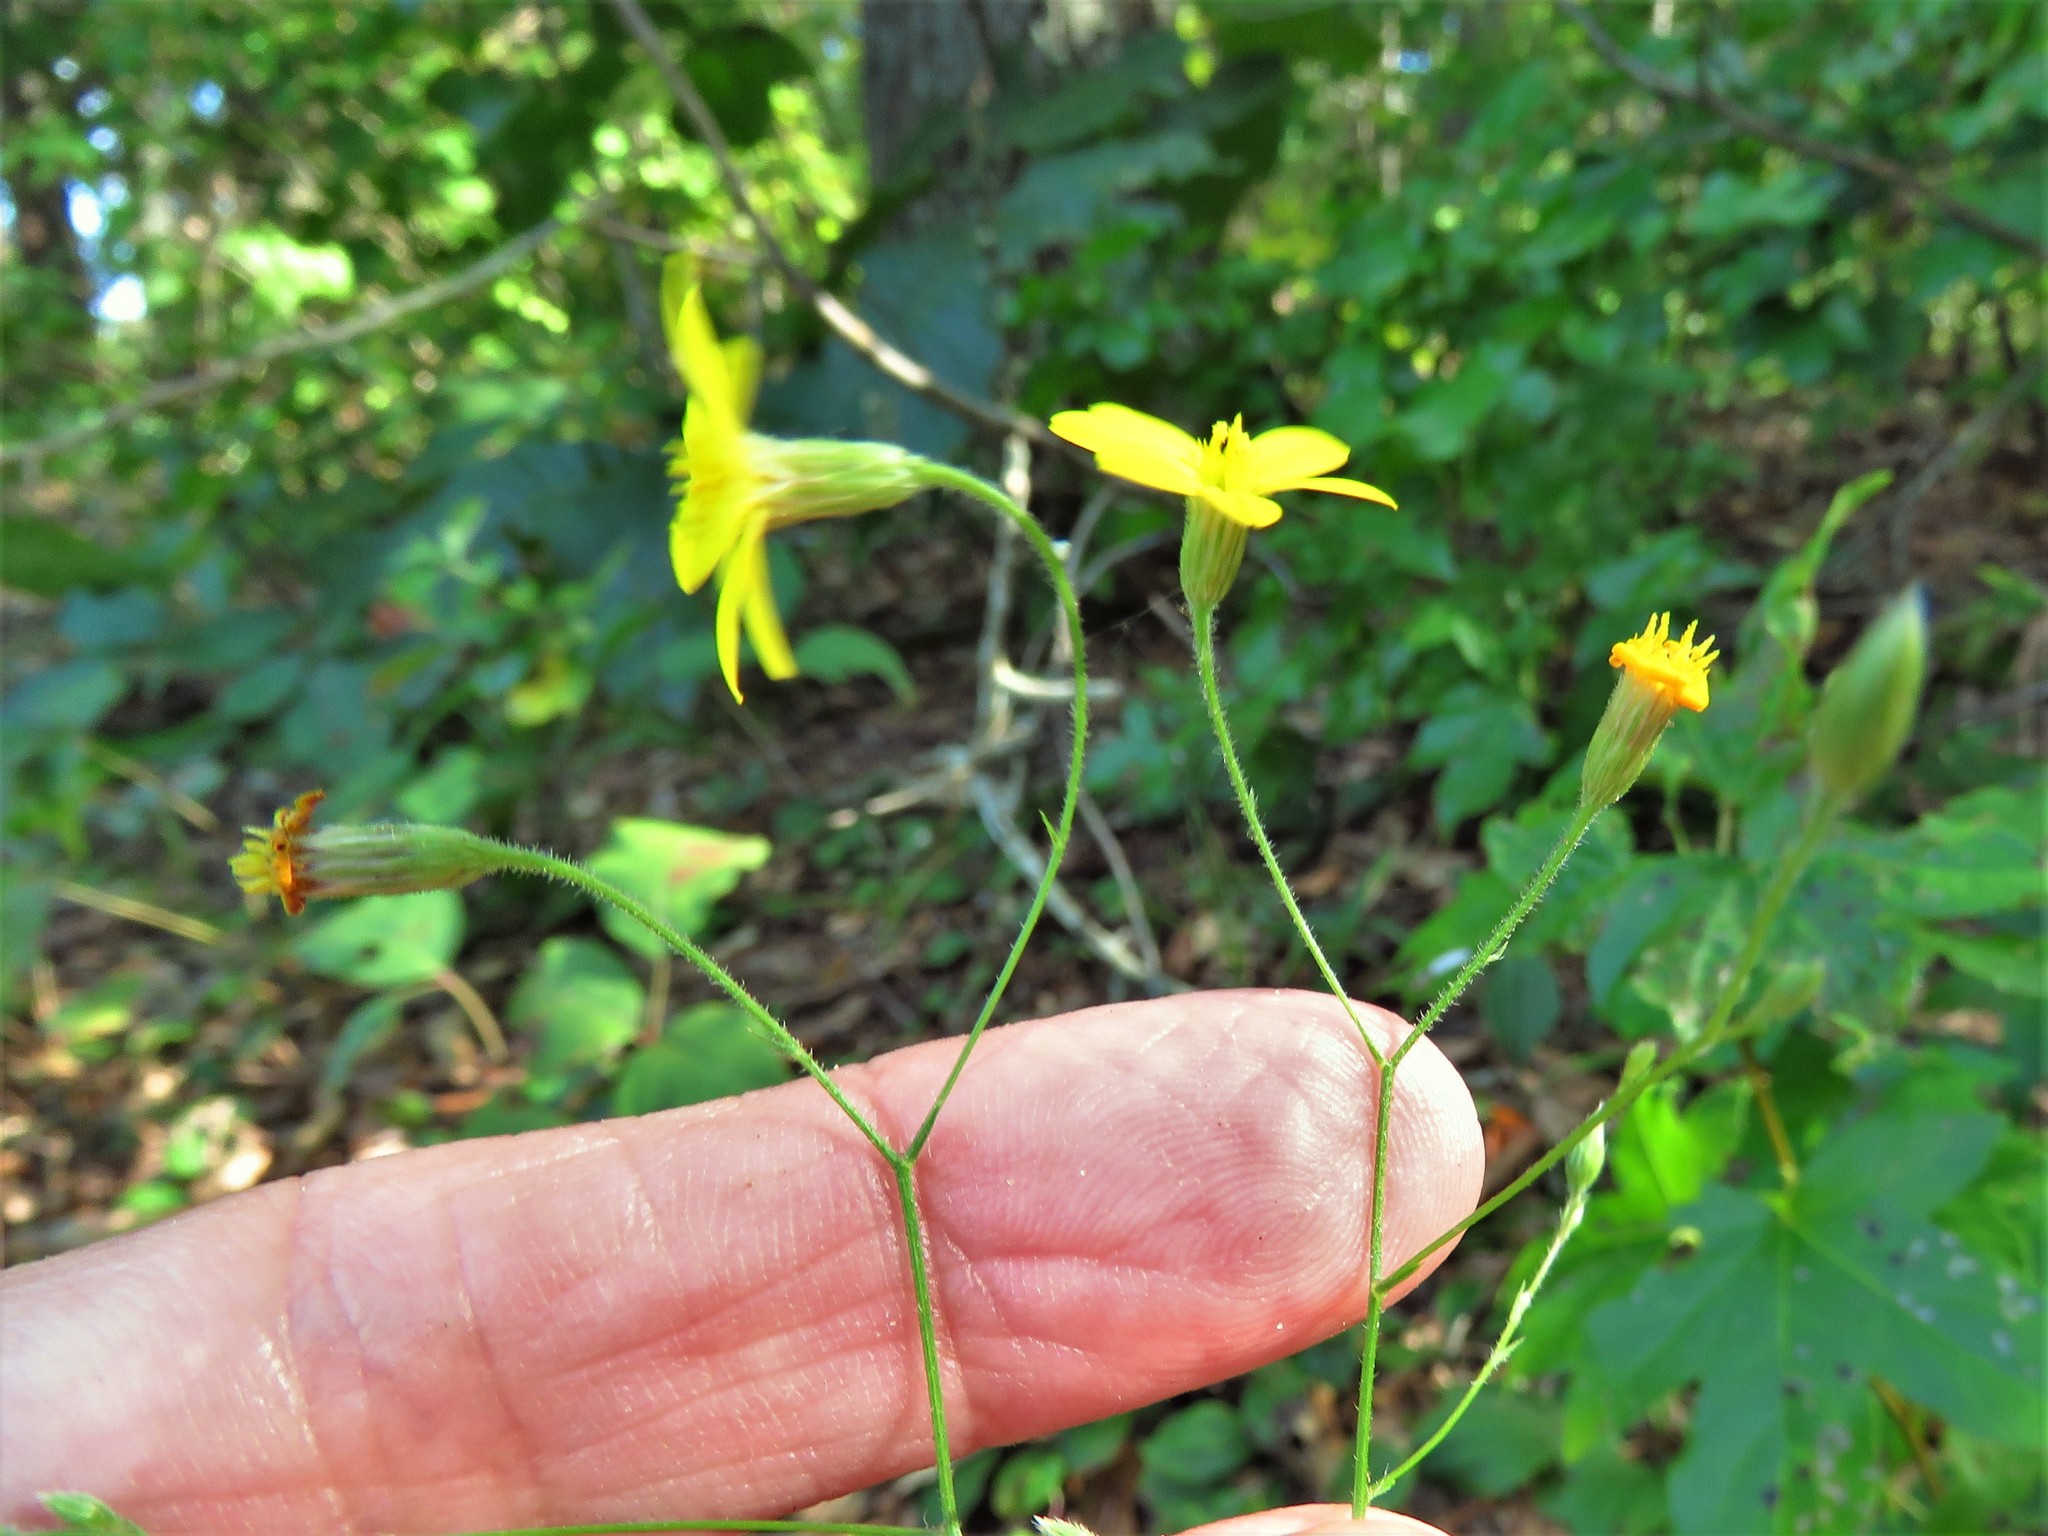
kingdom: Plantae
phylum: Tracheophyta
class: Magnoliopsida
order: Asterales
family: Asteraceae
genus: Croptilon
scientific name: Croptilon divaricatum
